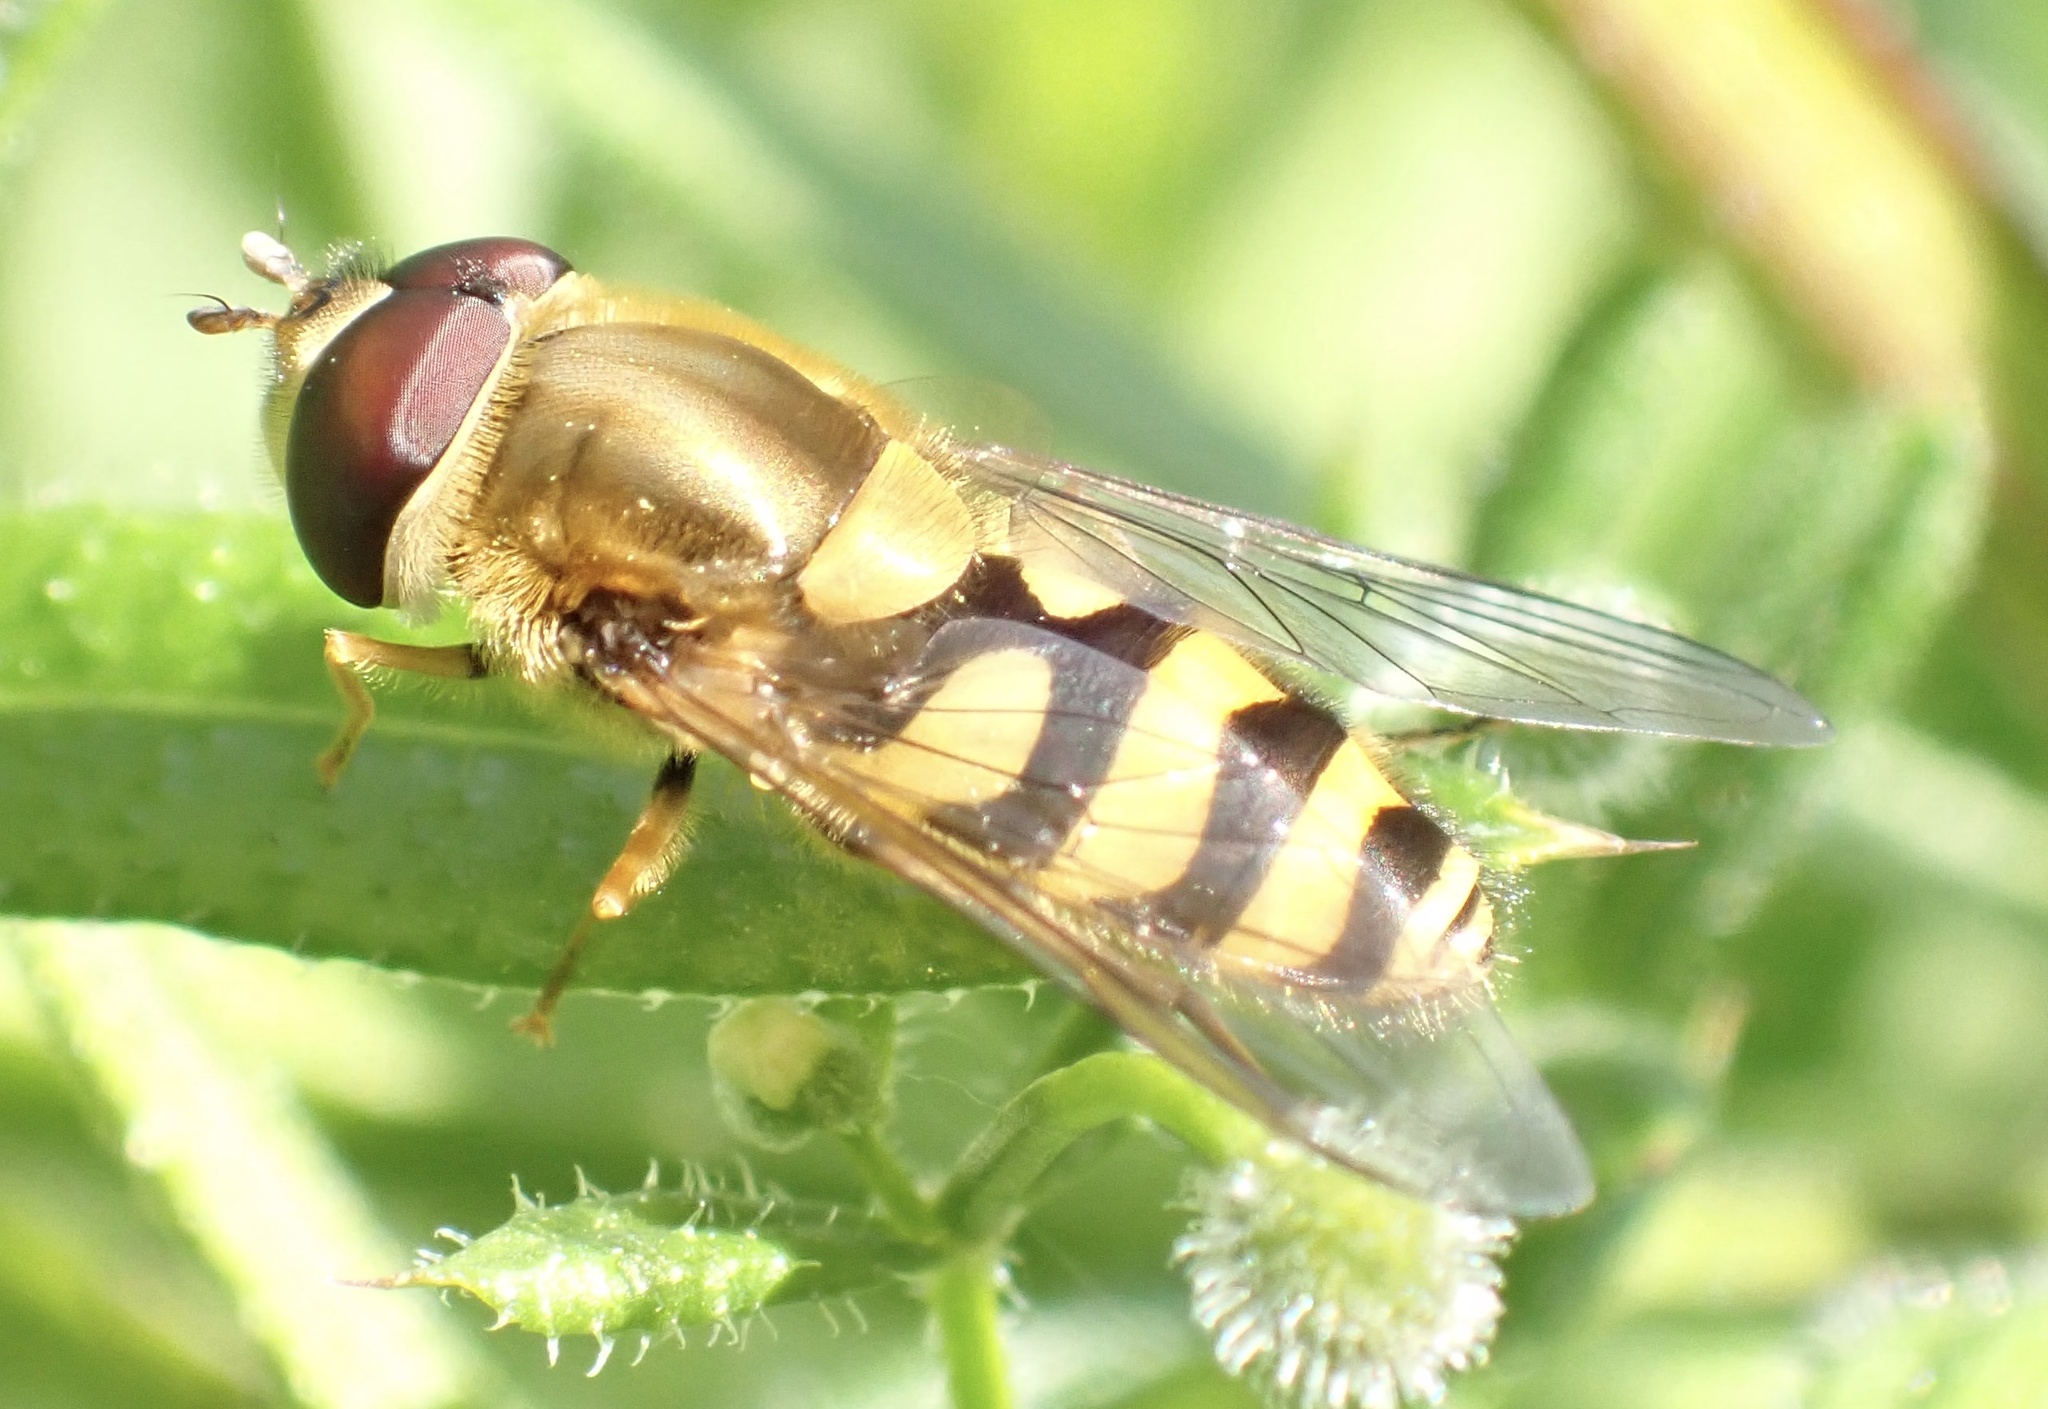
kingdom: Animalia
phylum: Arthropoda
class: Insecta
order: Diptera
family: Syrphidae
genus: Syrphus
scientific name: Syrphus
